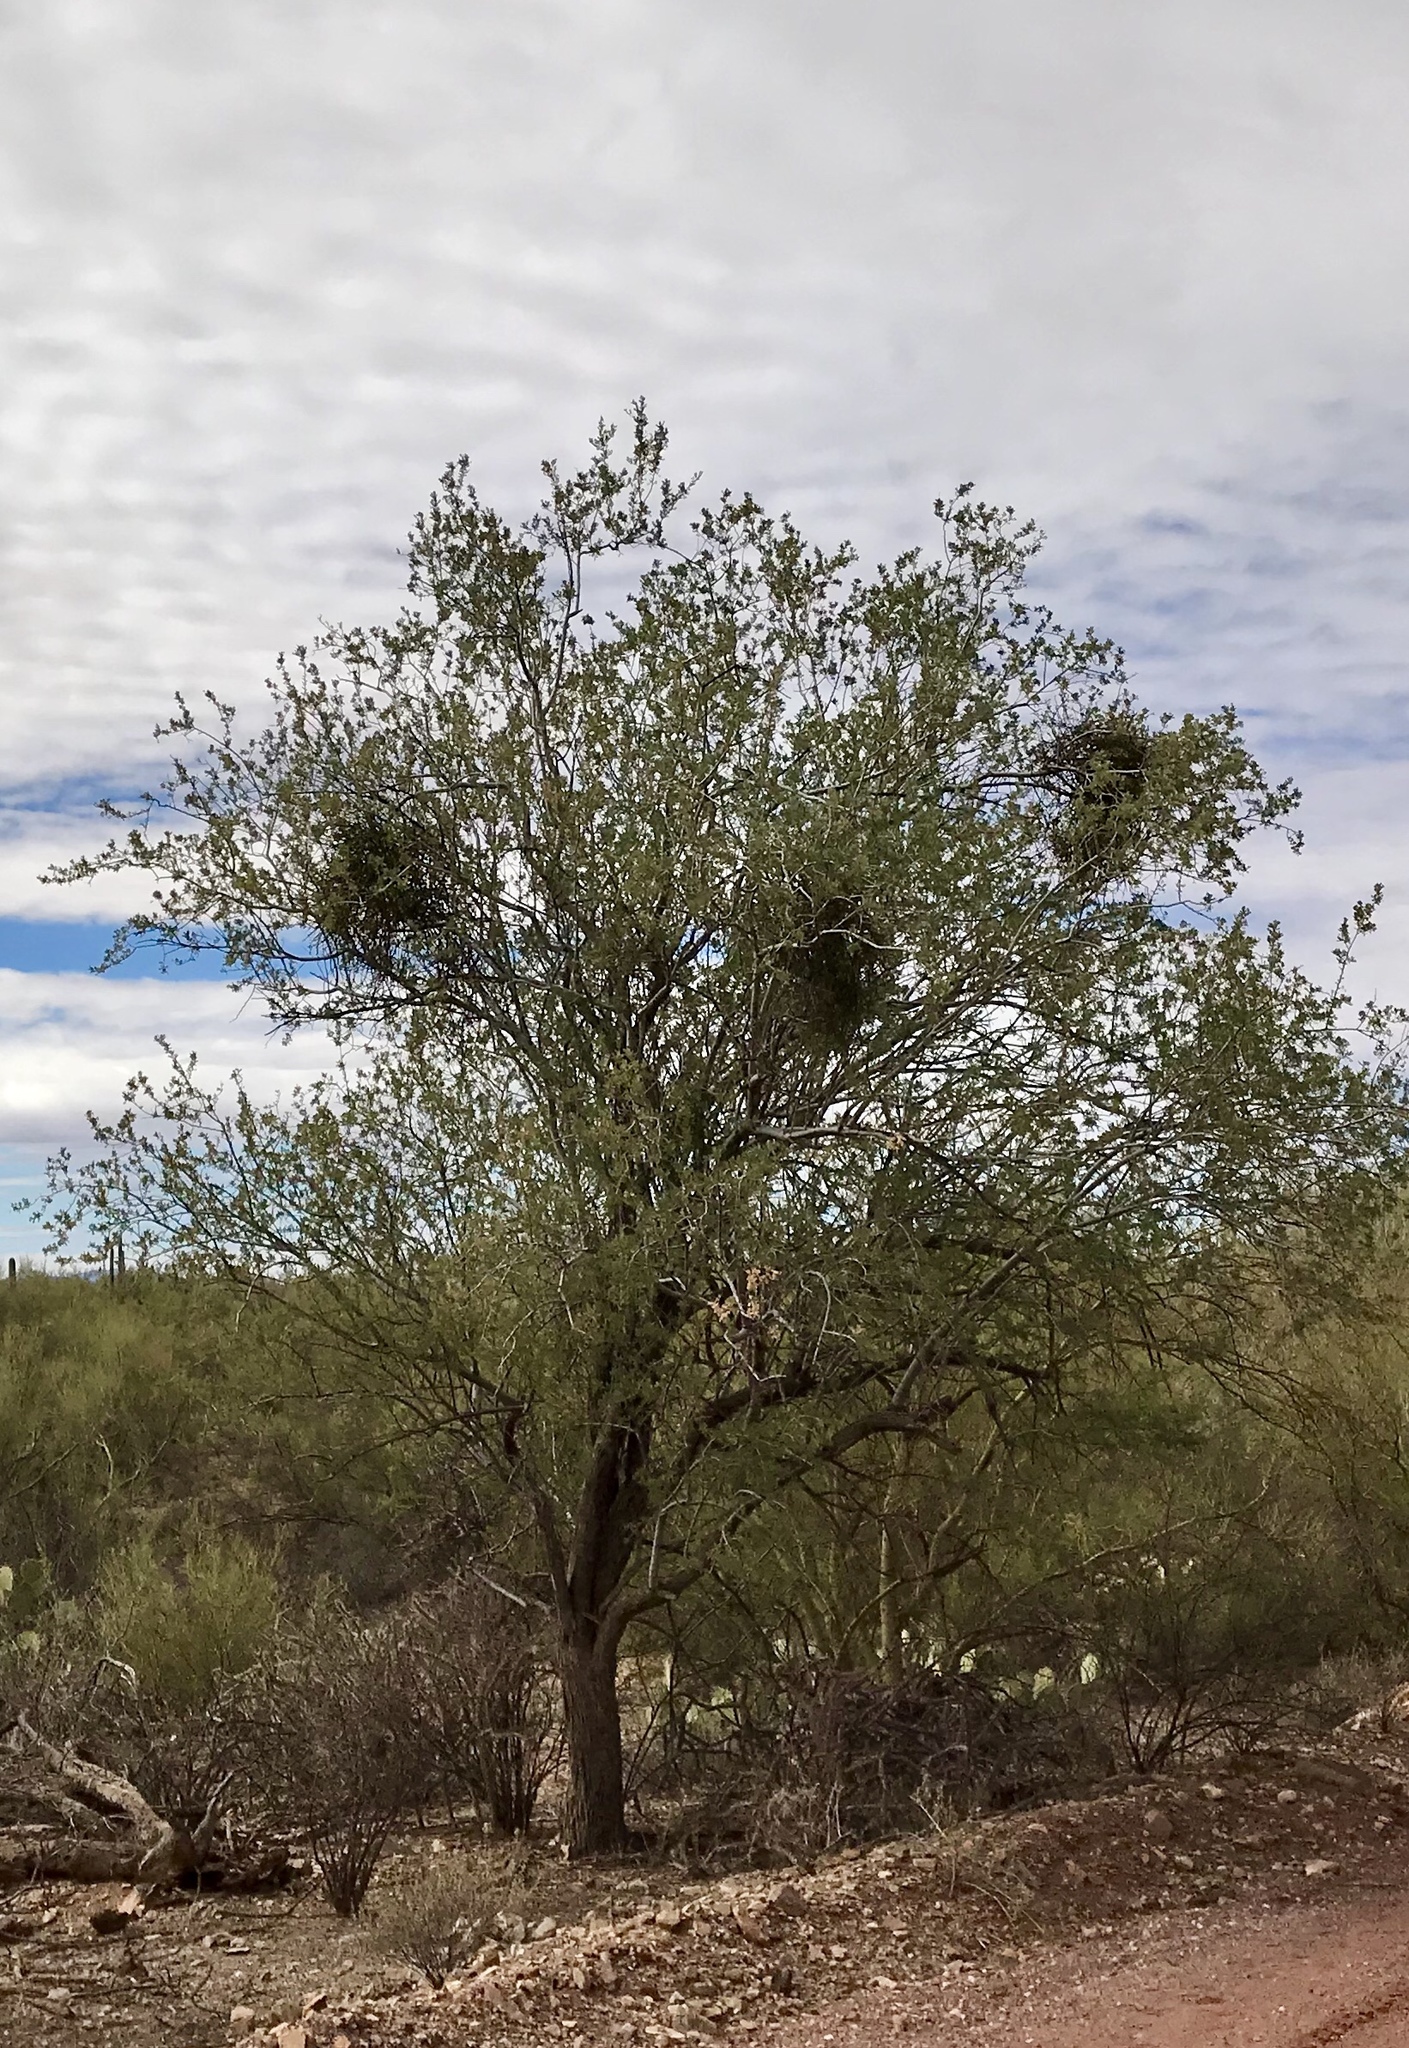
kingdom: Plantae
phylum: Tracheophyta
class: Magnoliopsida
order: Fabales
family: Fabaceae
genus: Olneya
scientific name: Olneya tesota
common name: Desert ironwood
